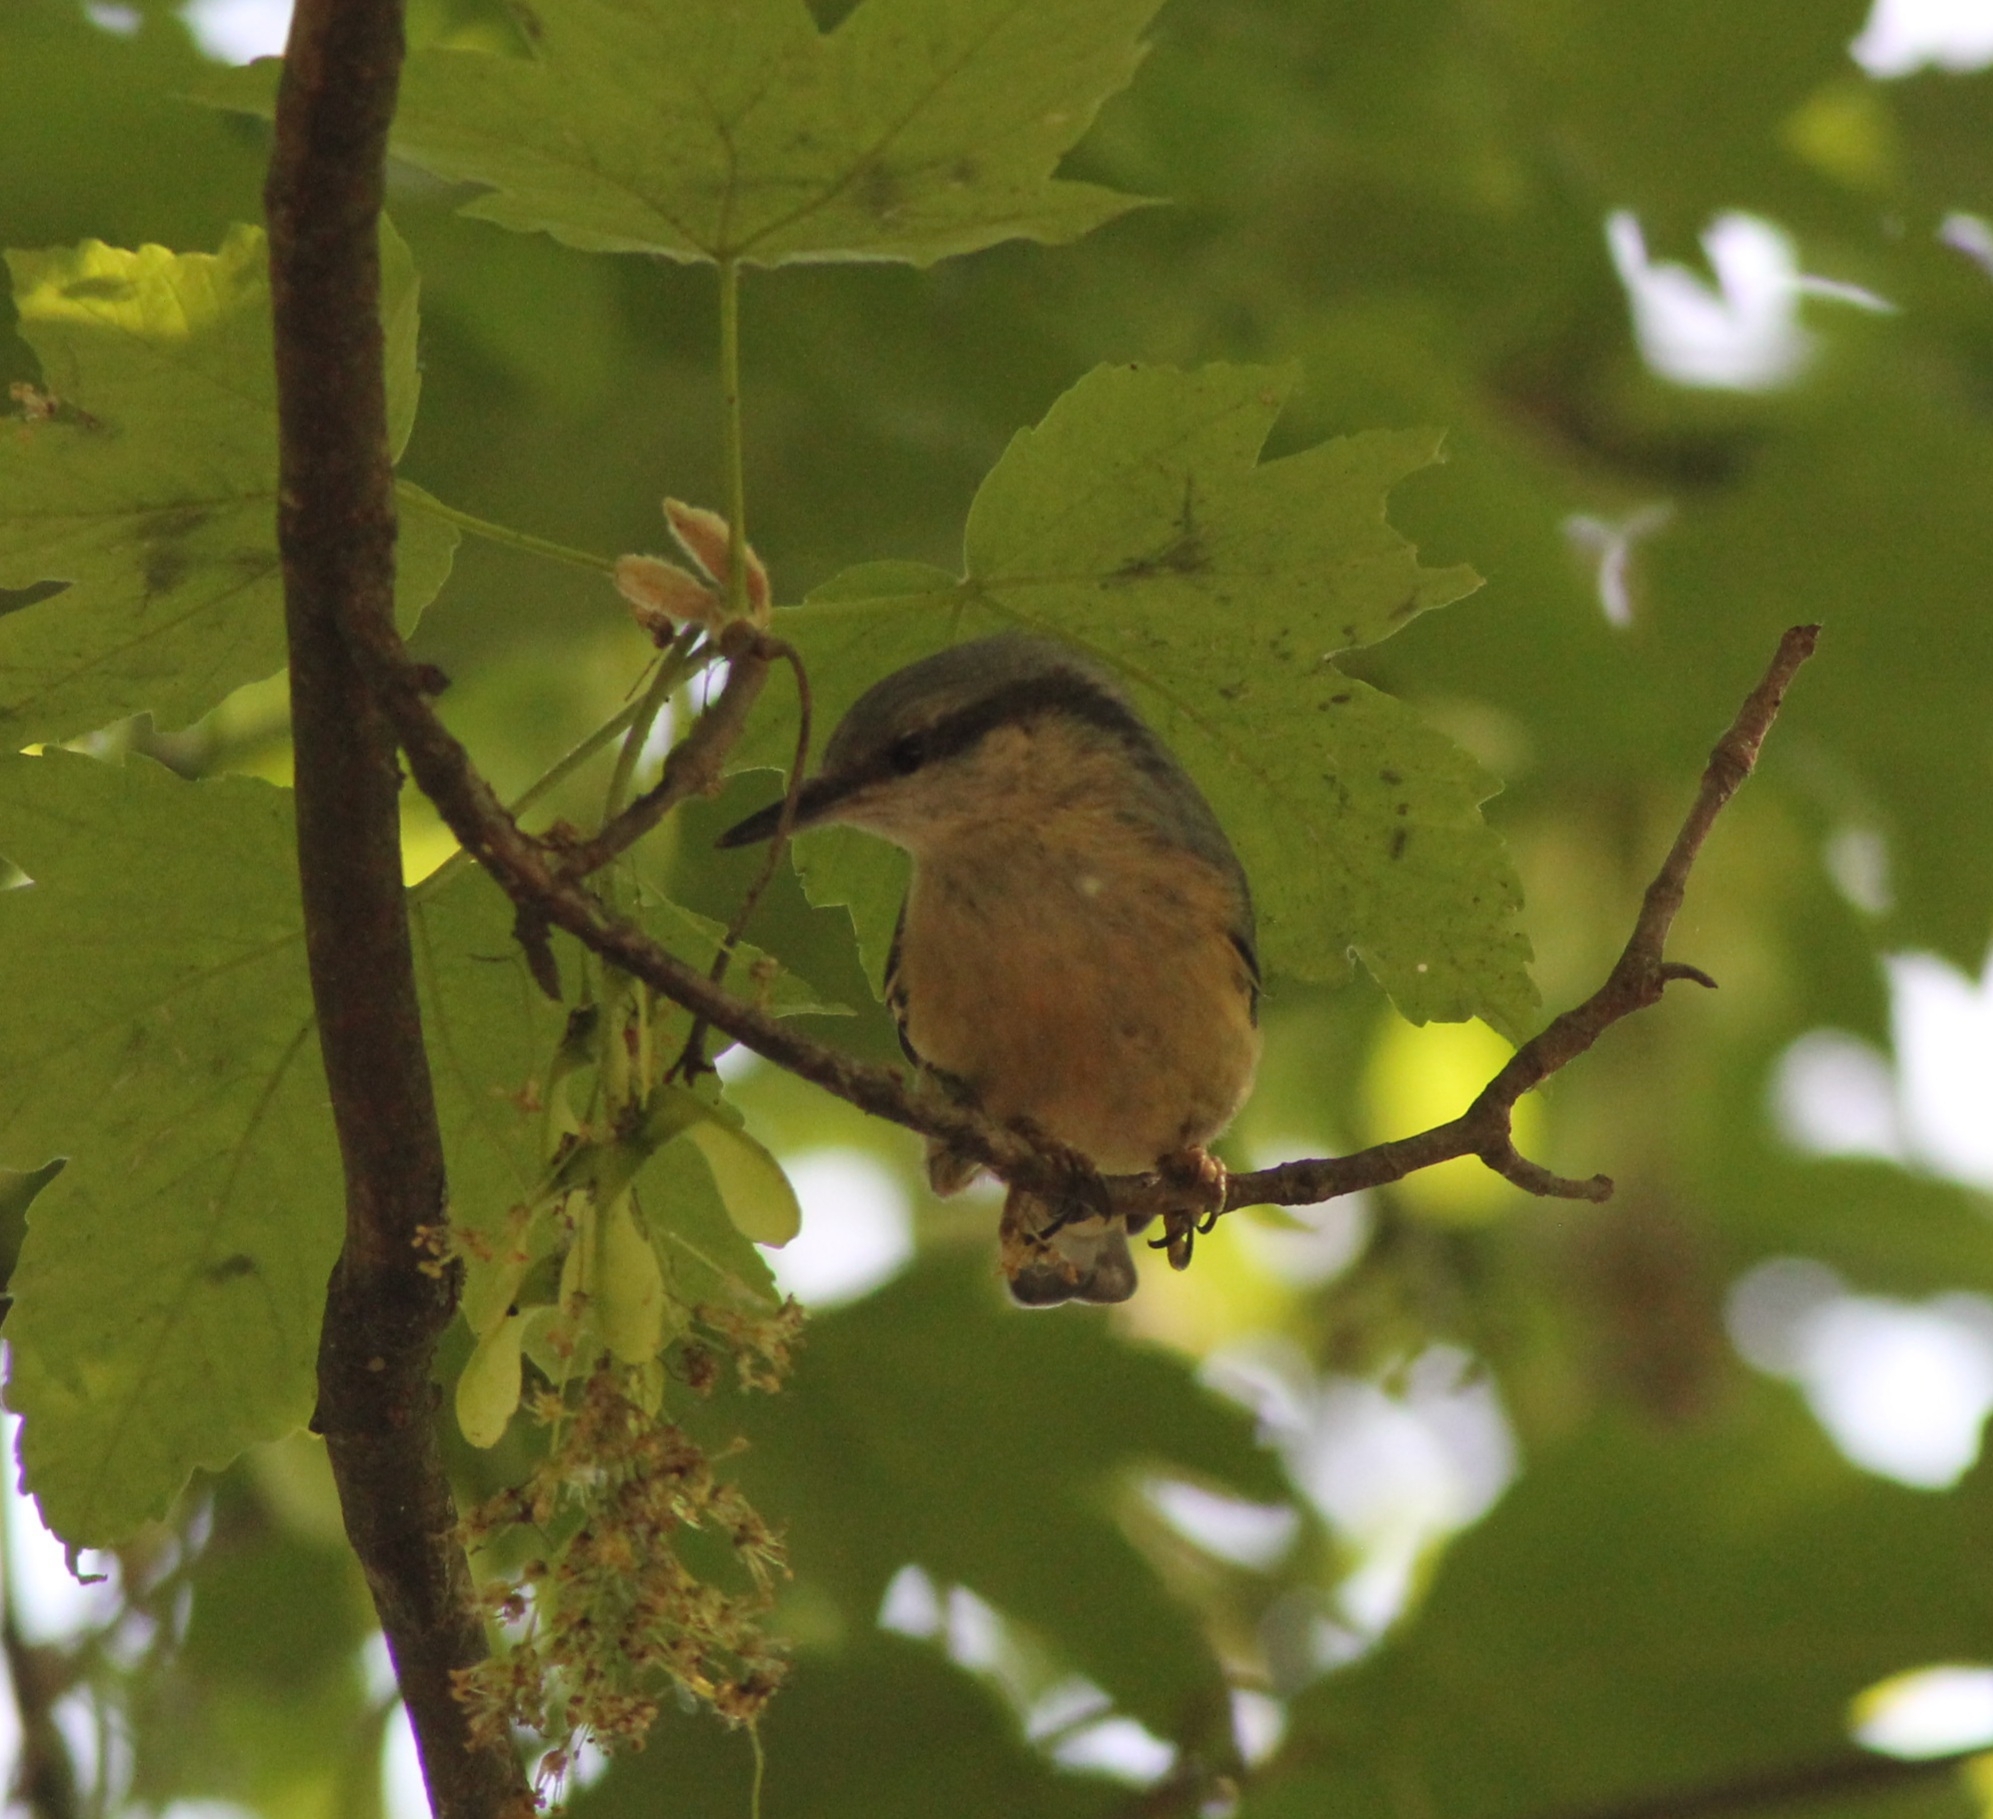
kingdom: Animalia
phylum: Chordata
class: Aves
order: Passeriformes
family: Sittidae
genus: Sitta
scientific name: Sitta europaea
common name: Eurasian nuthatch
